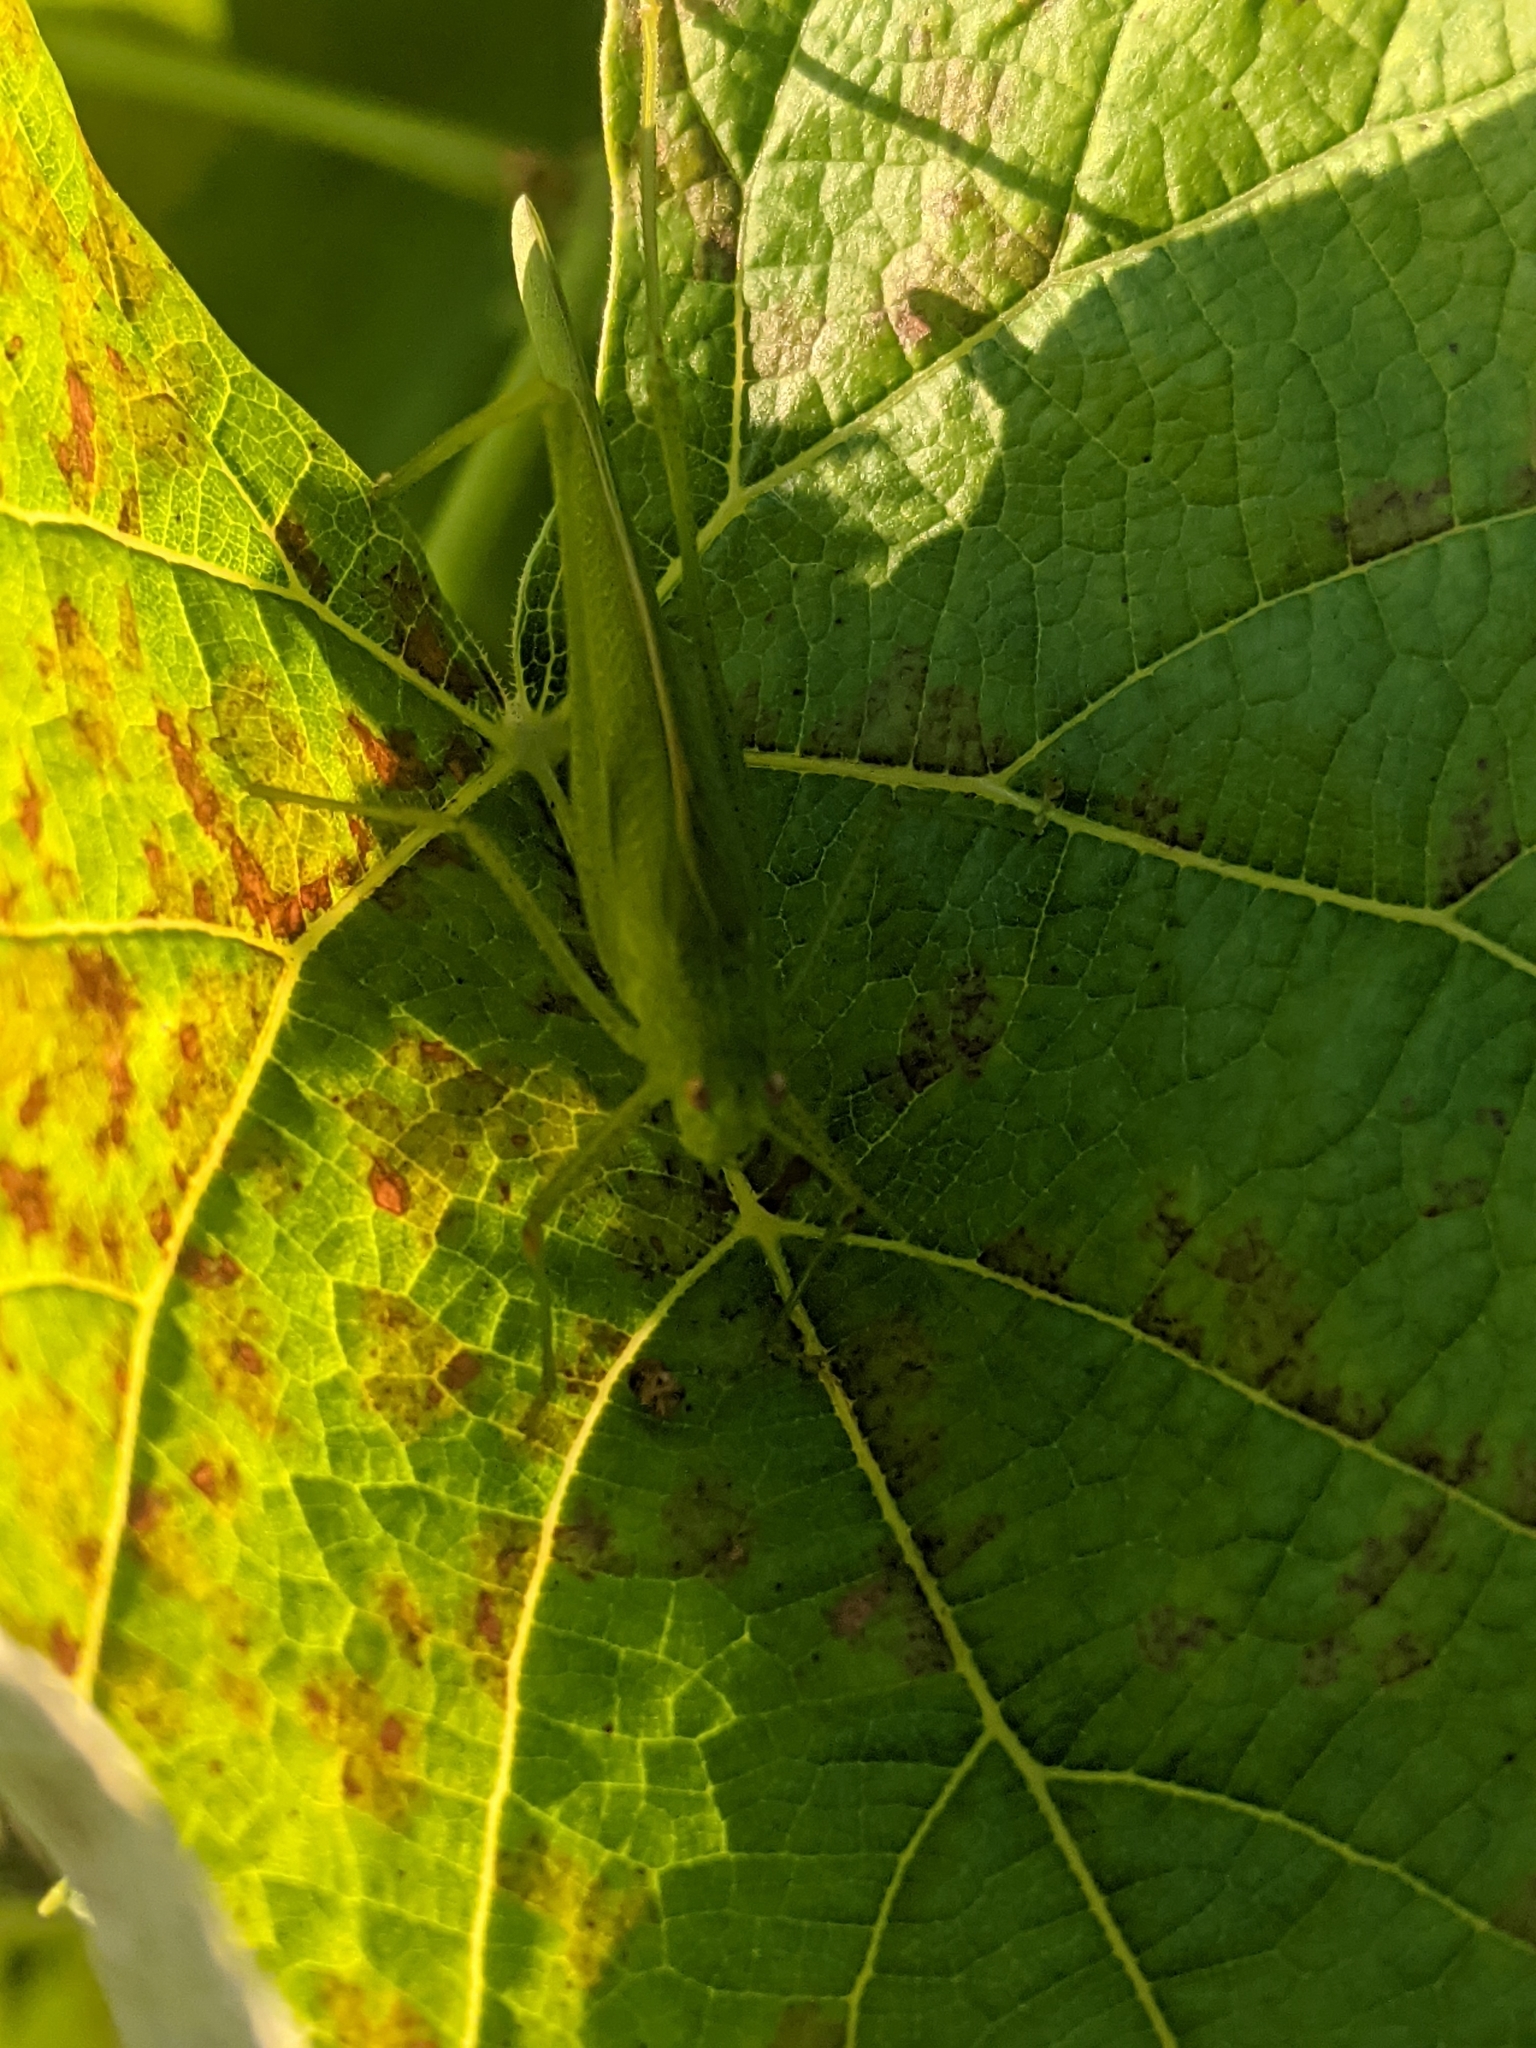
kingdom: Animalia
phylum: Arthropoda
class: Insecta
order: Orthoptera
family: Tettigoniidae
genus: Phaneroptera
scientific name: Phaneroptera nana
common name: Southern sickle bush-cricket
